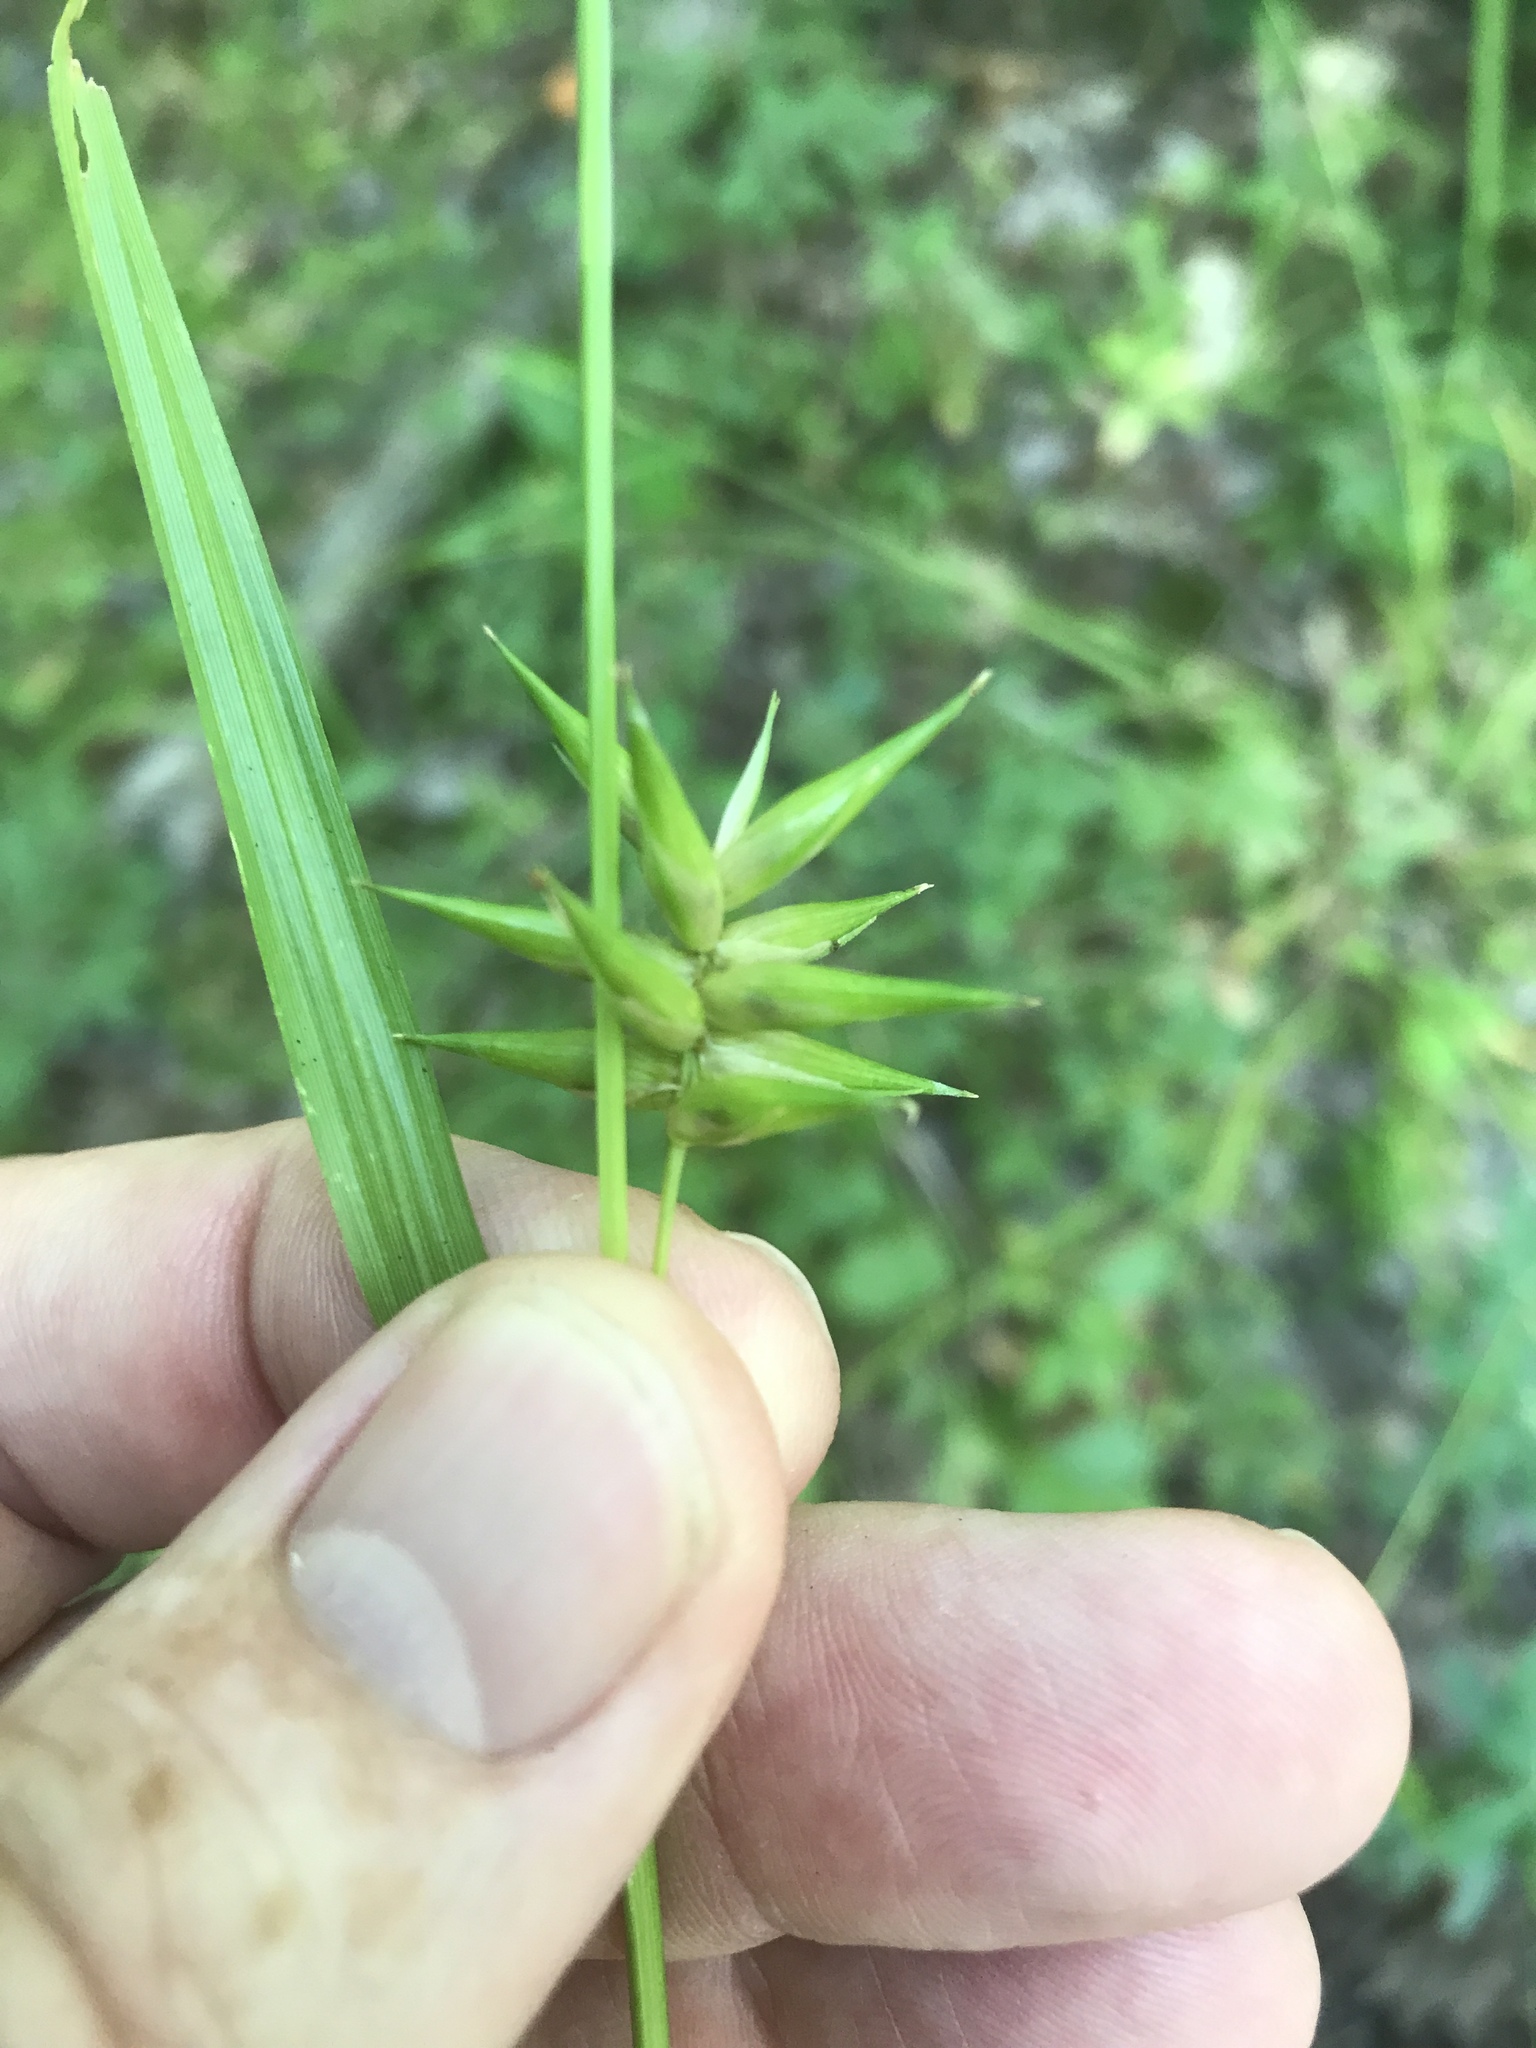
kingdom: Plantae
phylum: Tracheophyta
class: Liliopsida
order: Poales
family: Cyperaceae
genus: Carex
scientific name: Carex folliculata
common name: Northern long sedge
